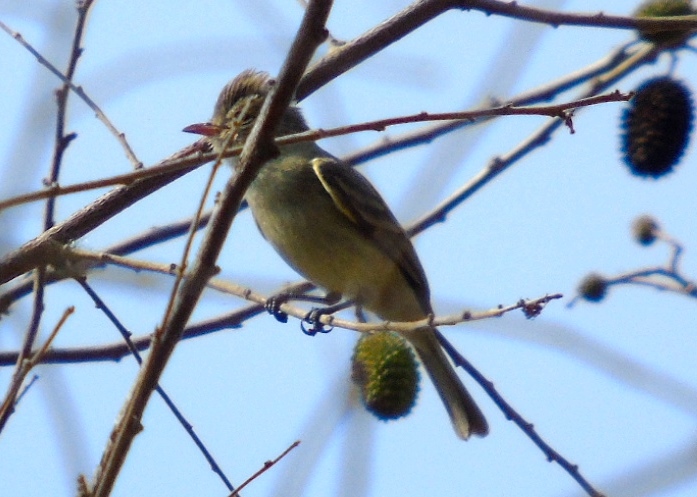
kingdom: Animalia
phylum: Chordata
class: Aves
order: Passeriformes
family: Tyrannidae
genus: Camptostoma
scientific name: Camptostoma imberbe
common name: Northern beardless-tyrannulet
